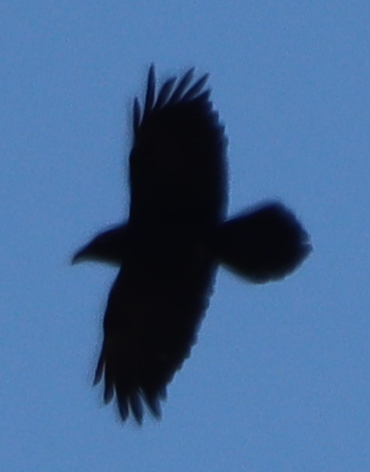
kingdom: Animalia
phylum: Chordata
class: Aves
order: Passeriformes
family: Corvidae
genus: Corvus
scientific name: Corvus corax
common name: Common raven
